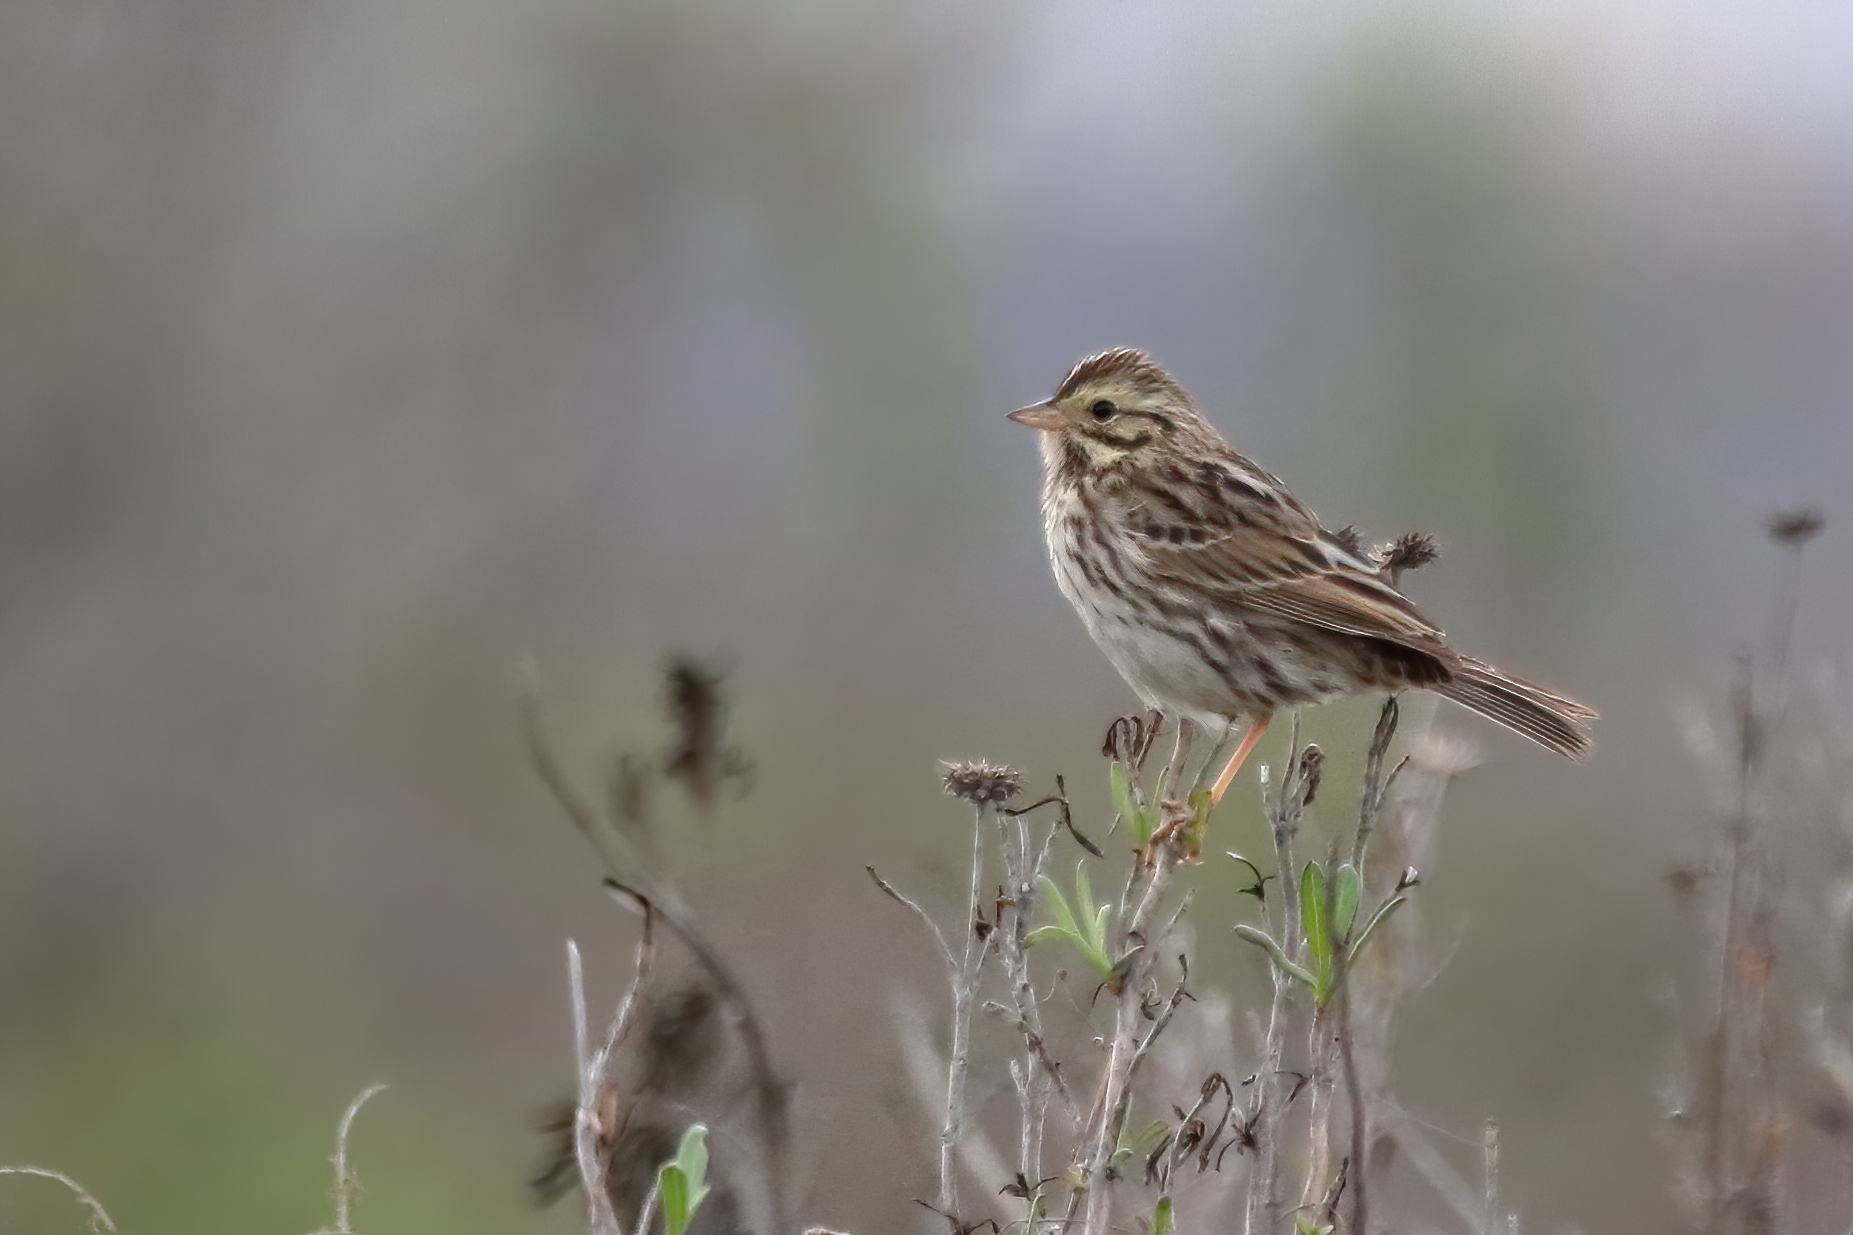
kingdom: Animalia
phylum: Chordata
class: Aves
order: Passeriformes
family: Passerellidae
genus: Passerculus
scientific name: Passerculus sandwichensis
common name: Savannah sparrow
